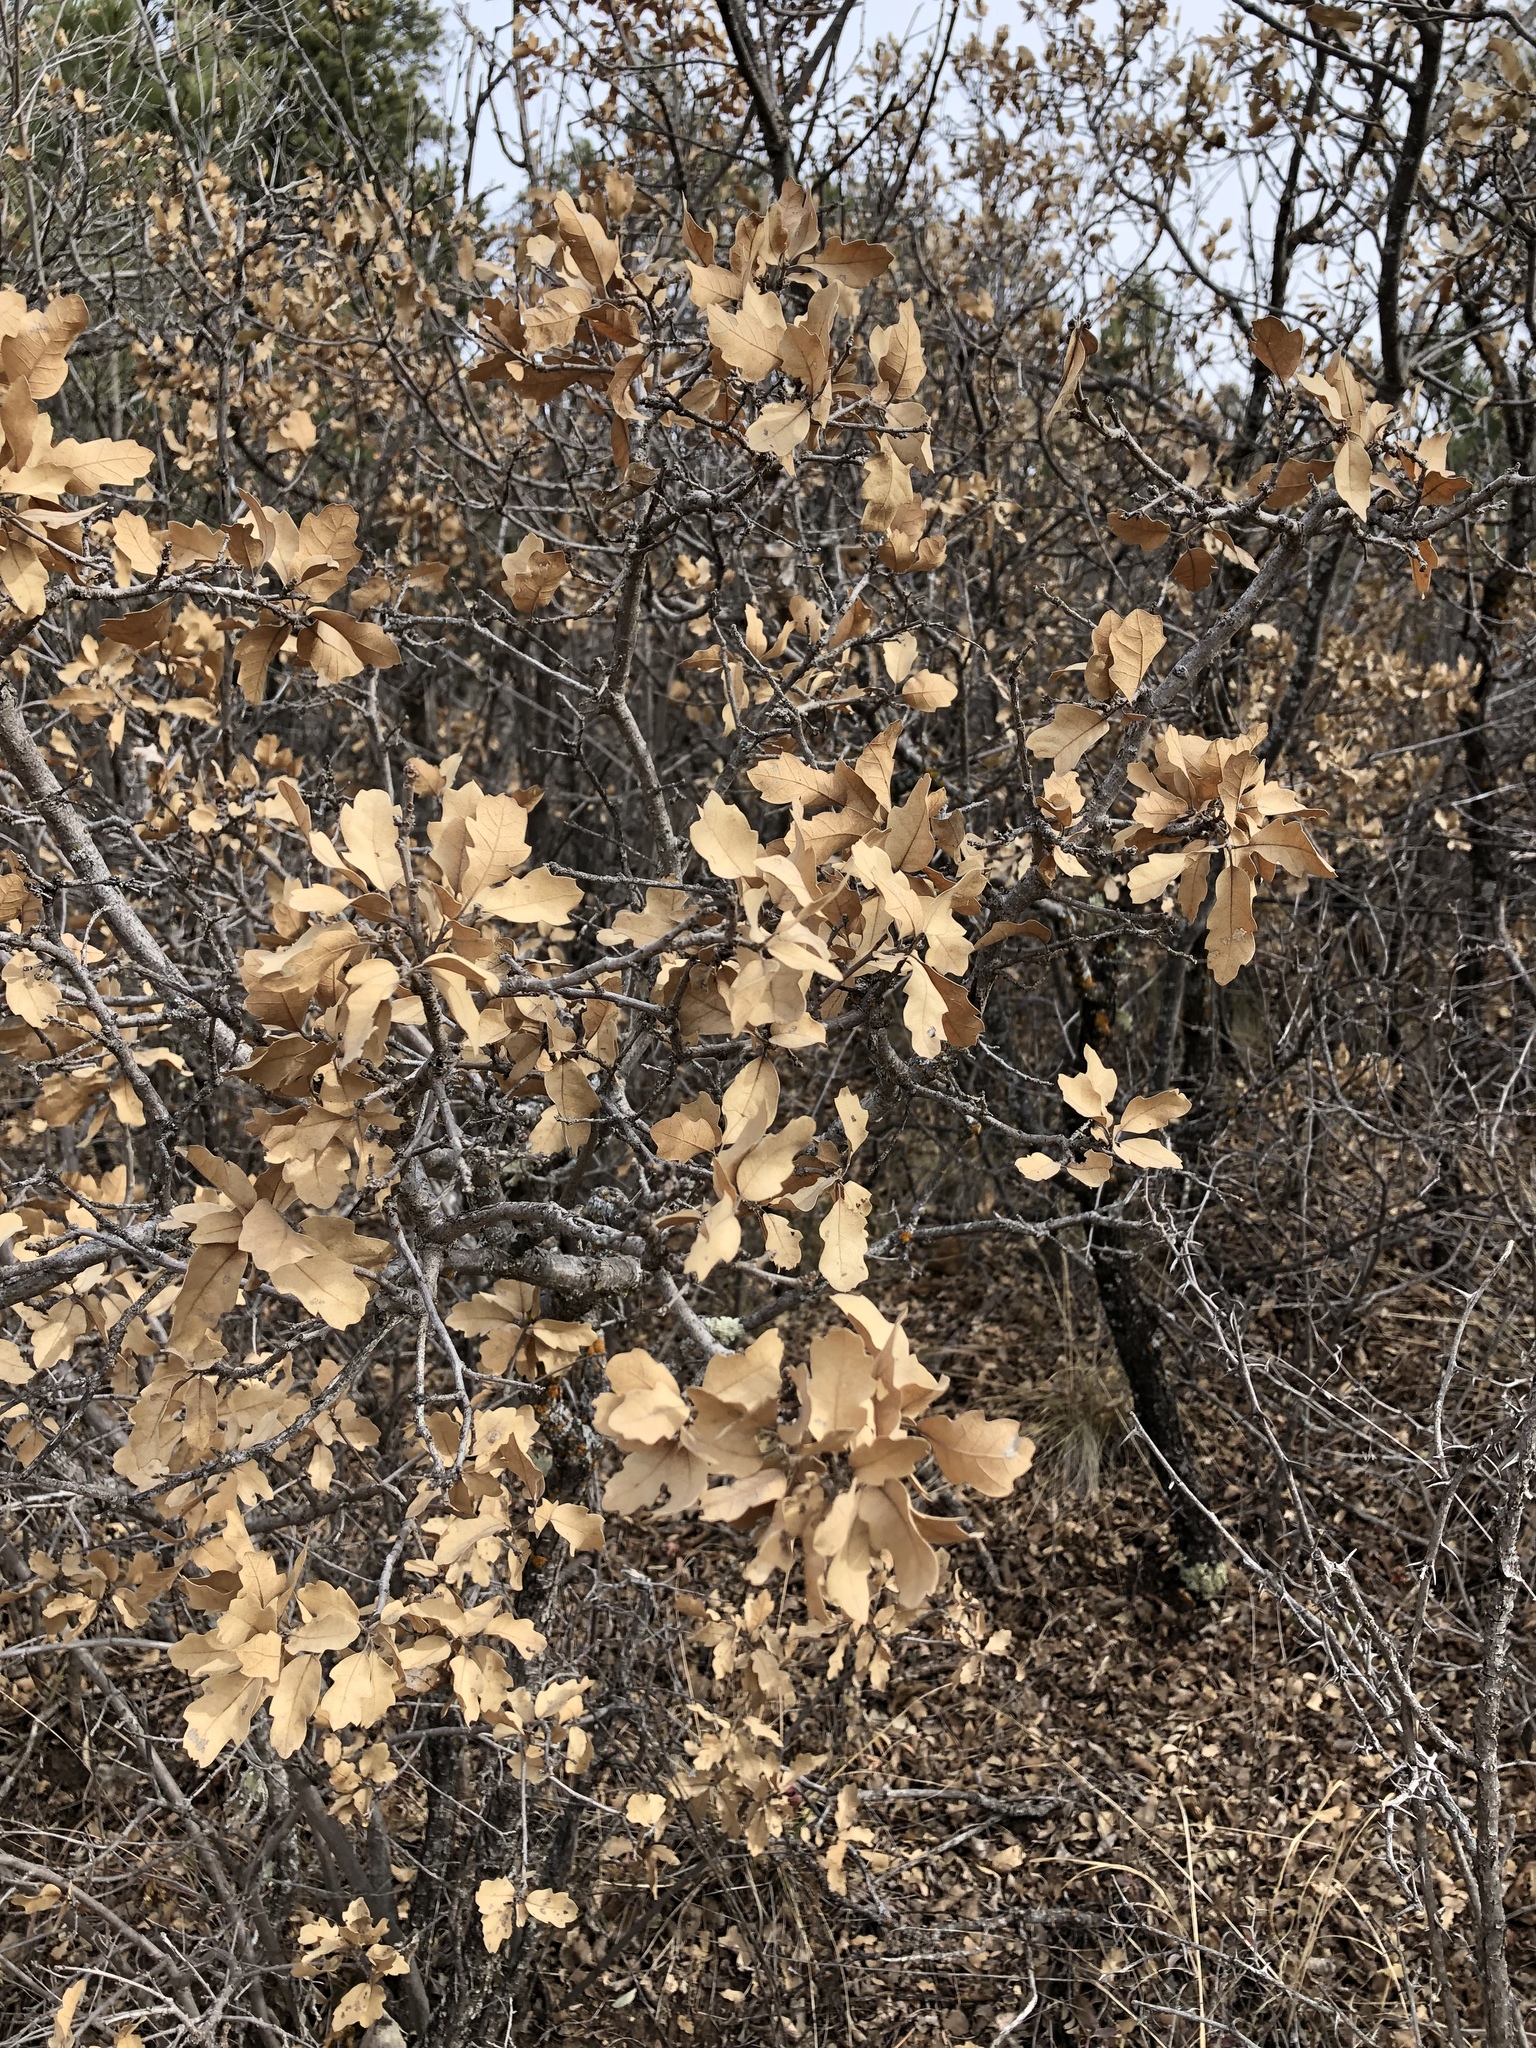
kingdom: Plantae
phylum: Tracheophyta
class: Magnoliopsida
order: Fagales
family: Fagaceae
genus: Quercus
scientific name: Quercus undulata
